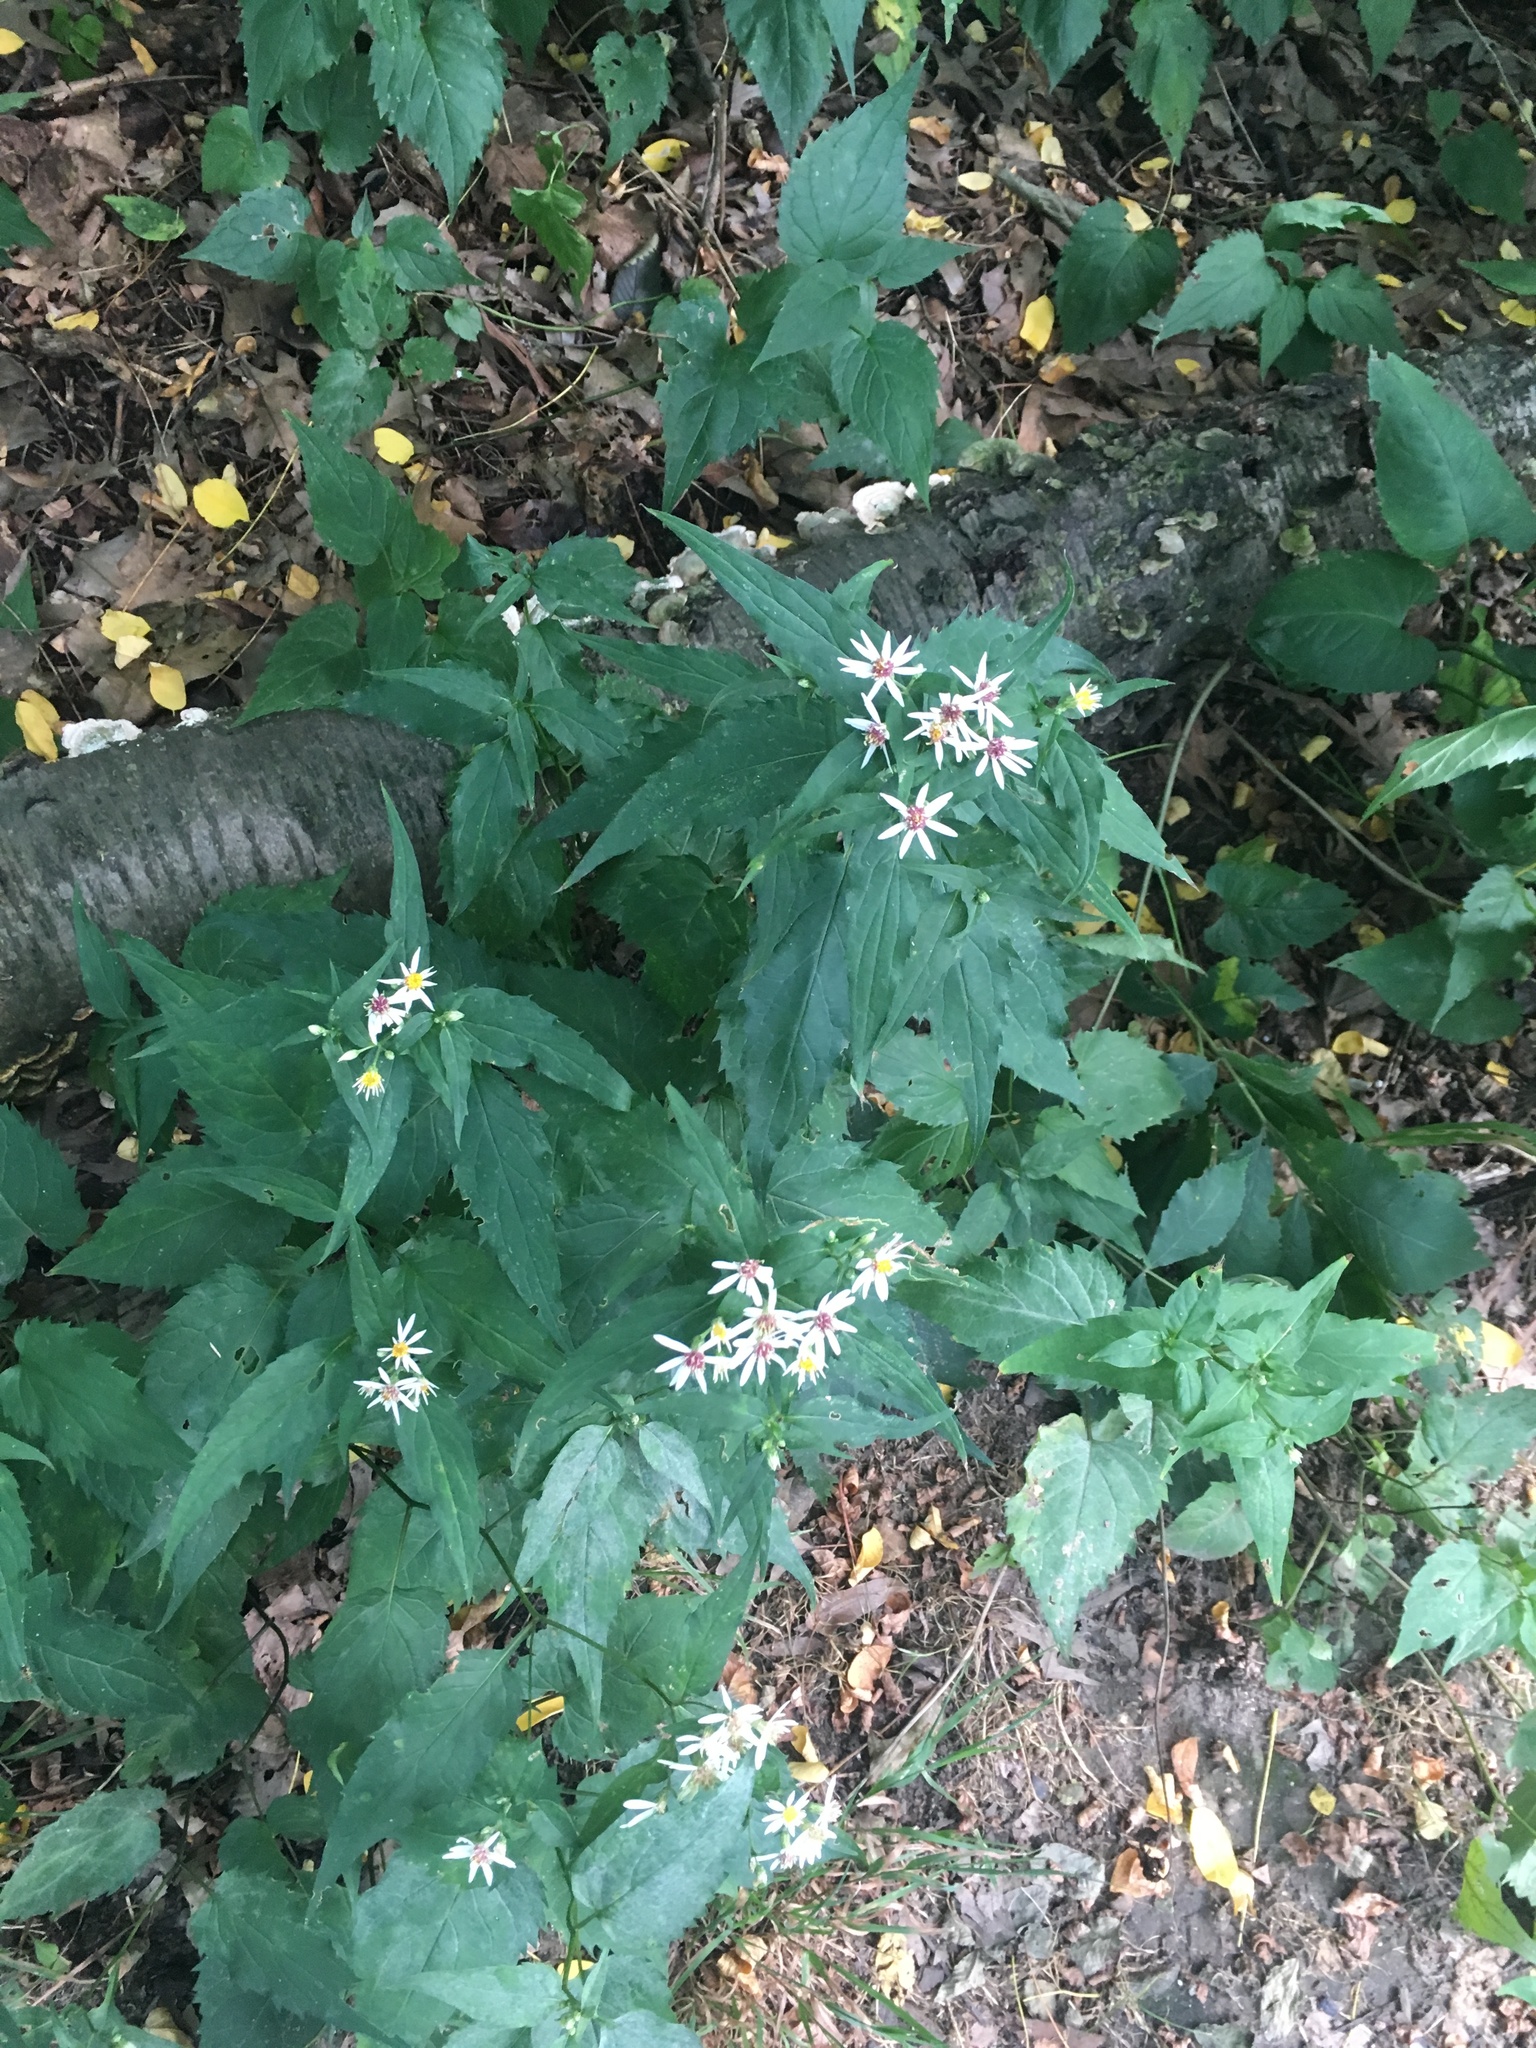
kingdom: Plantae
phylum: Tracheophyta
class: Magnoliopsida
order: Asterales
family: Asteraceae
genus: Eurybia
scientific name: Eurybia divaricata
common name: White wood aster
